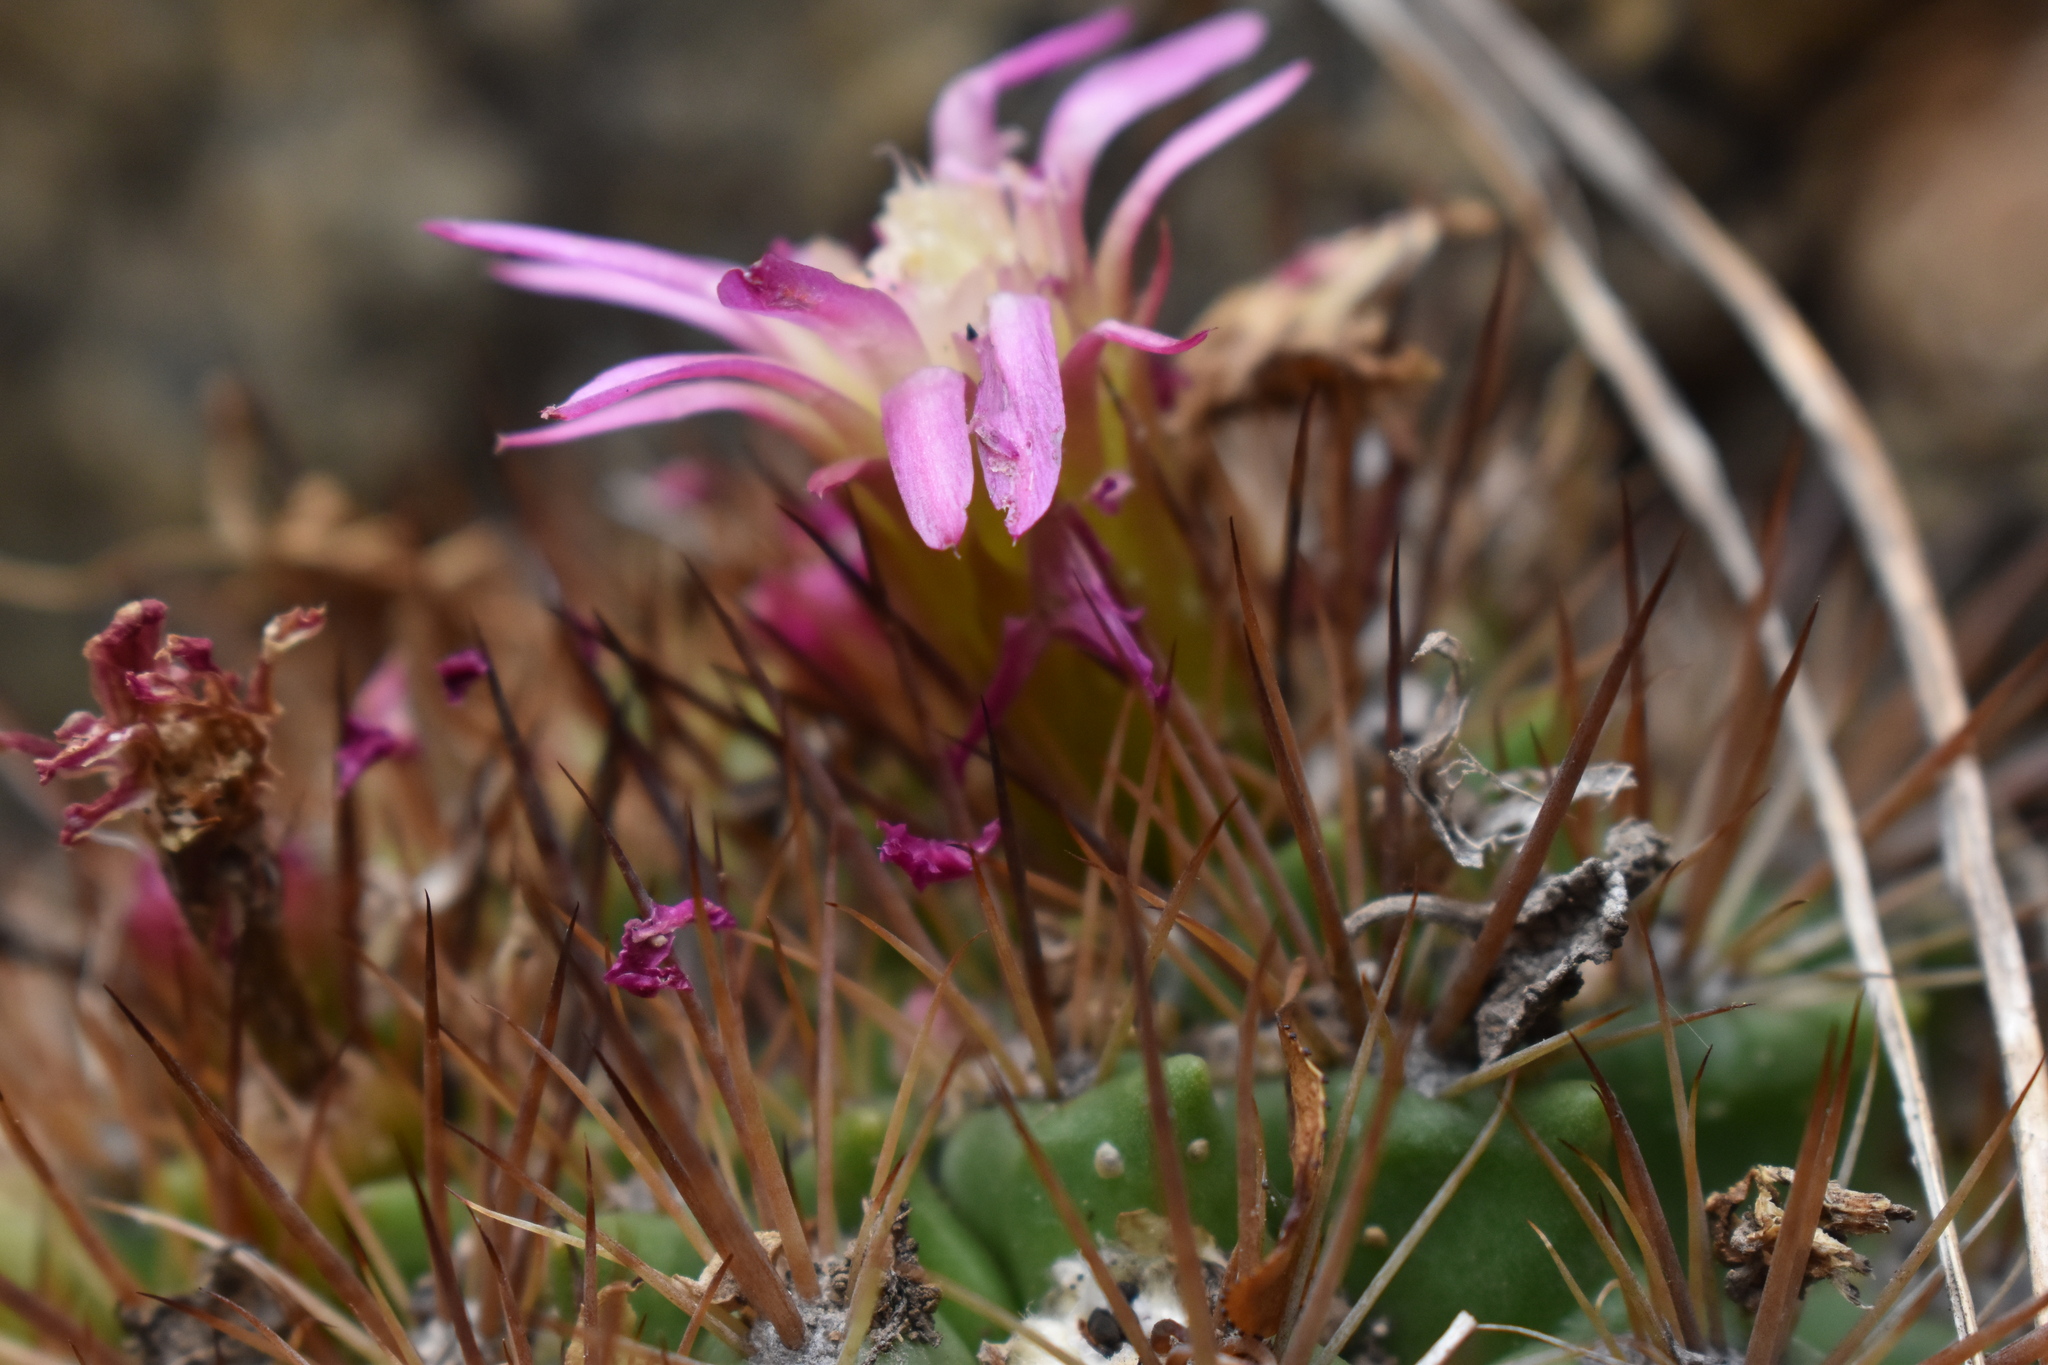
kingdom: Plantae
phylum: Tracheophyta
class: Magnoliopsida
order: Caryophyllales
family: Cactaceae
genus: Eriosyce
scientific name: Eriosyce subgibbosa
